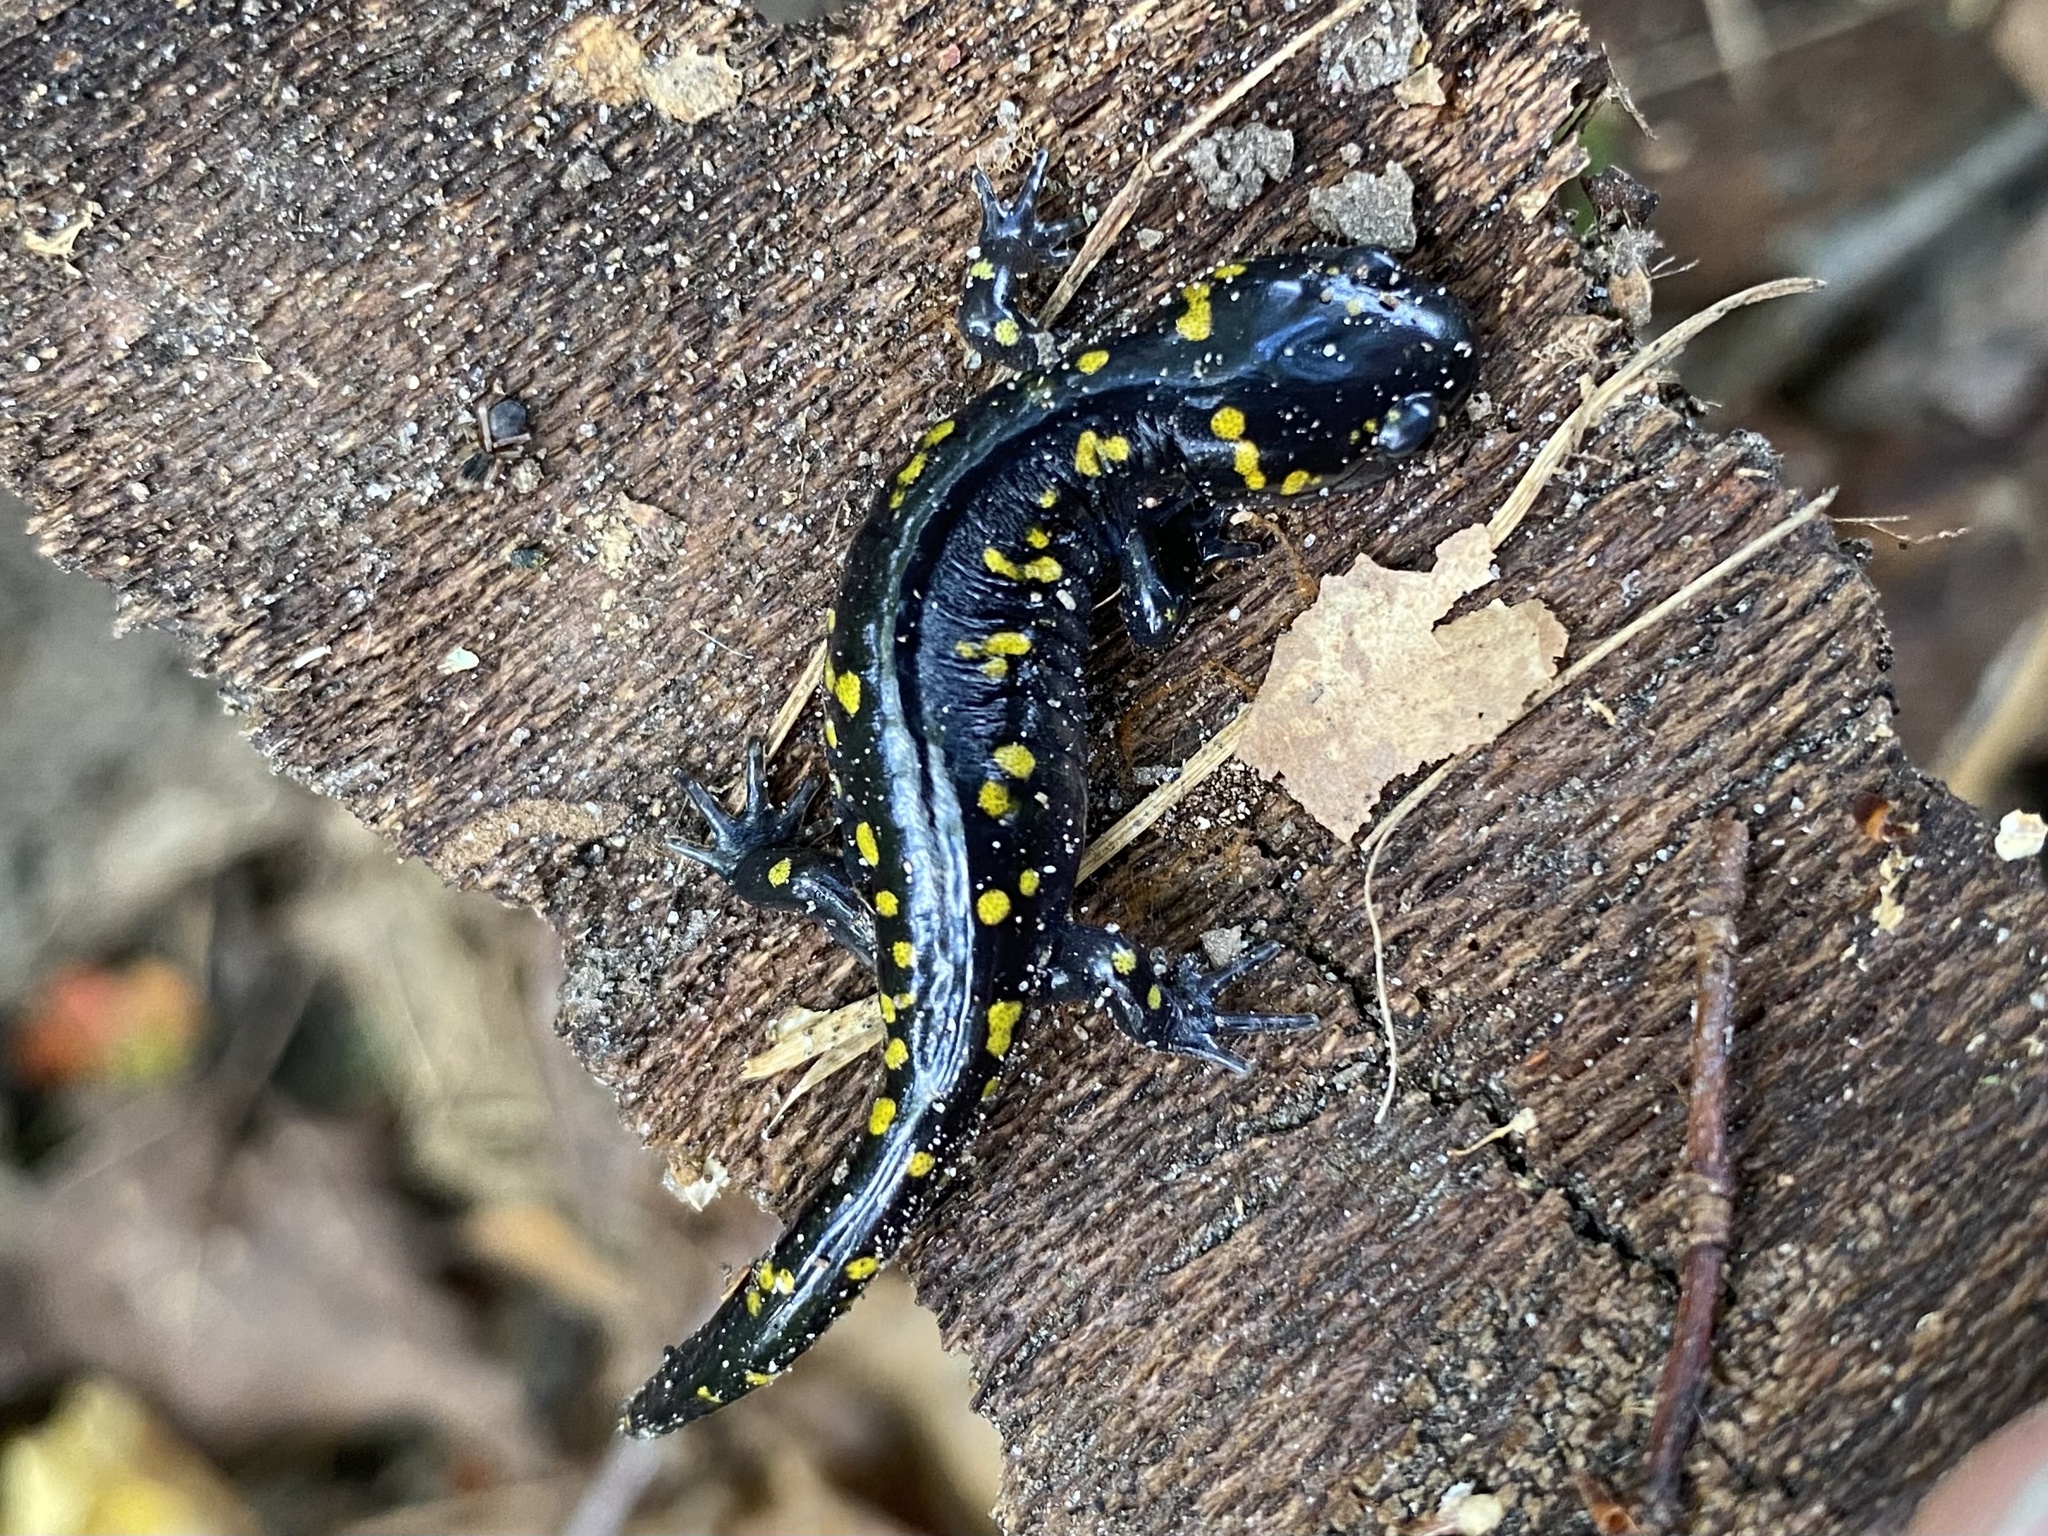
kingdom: Animalia
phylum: Chordata
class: Amphibia
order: Caudata
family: Ambystomatidae
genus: Ambystoma
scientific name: Ambystoma maculatum
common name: Spotted salamander
